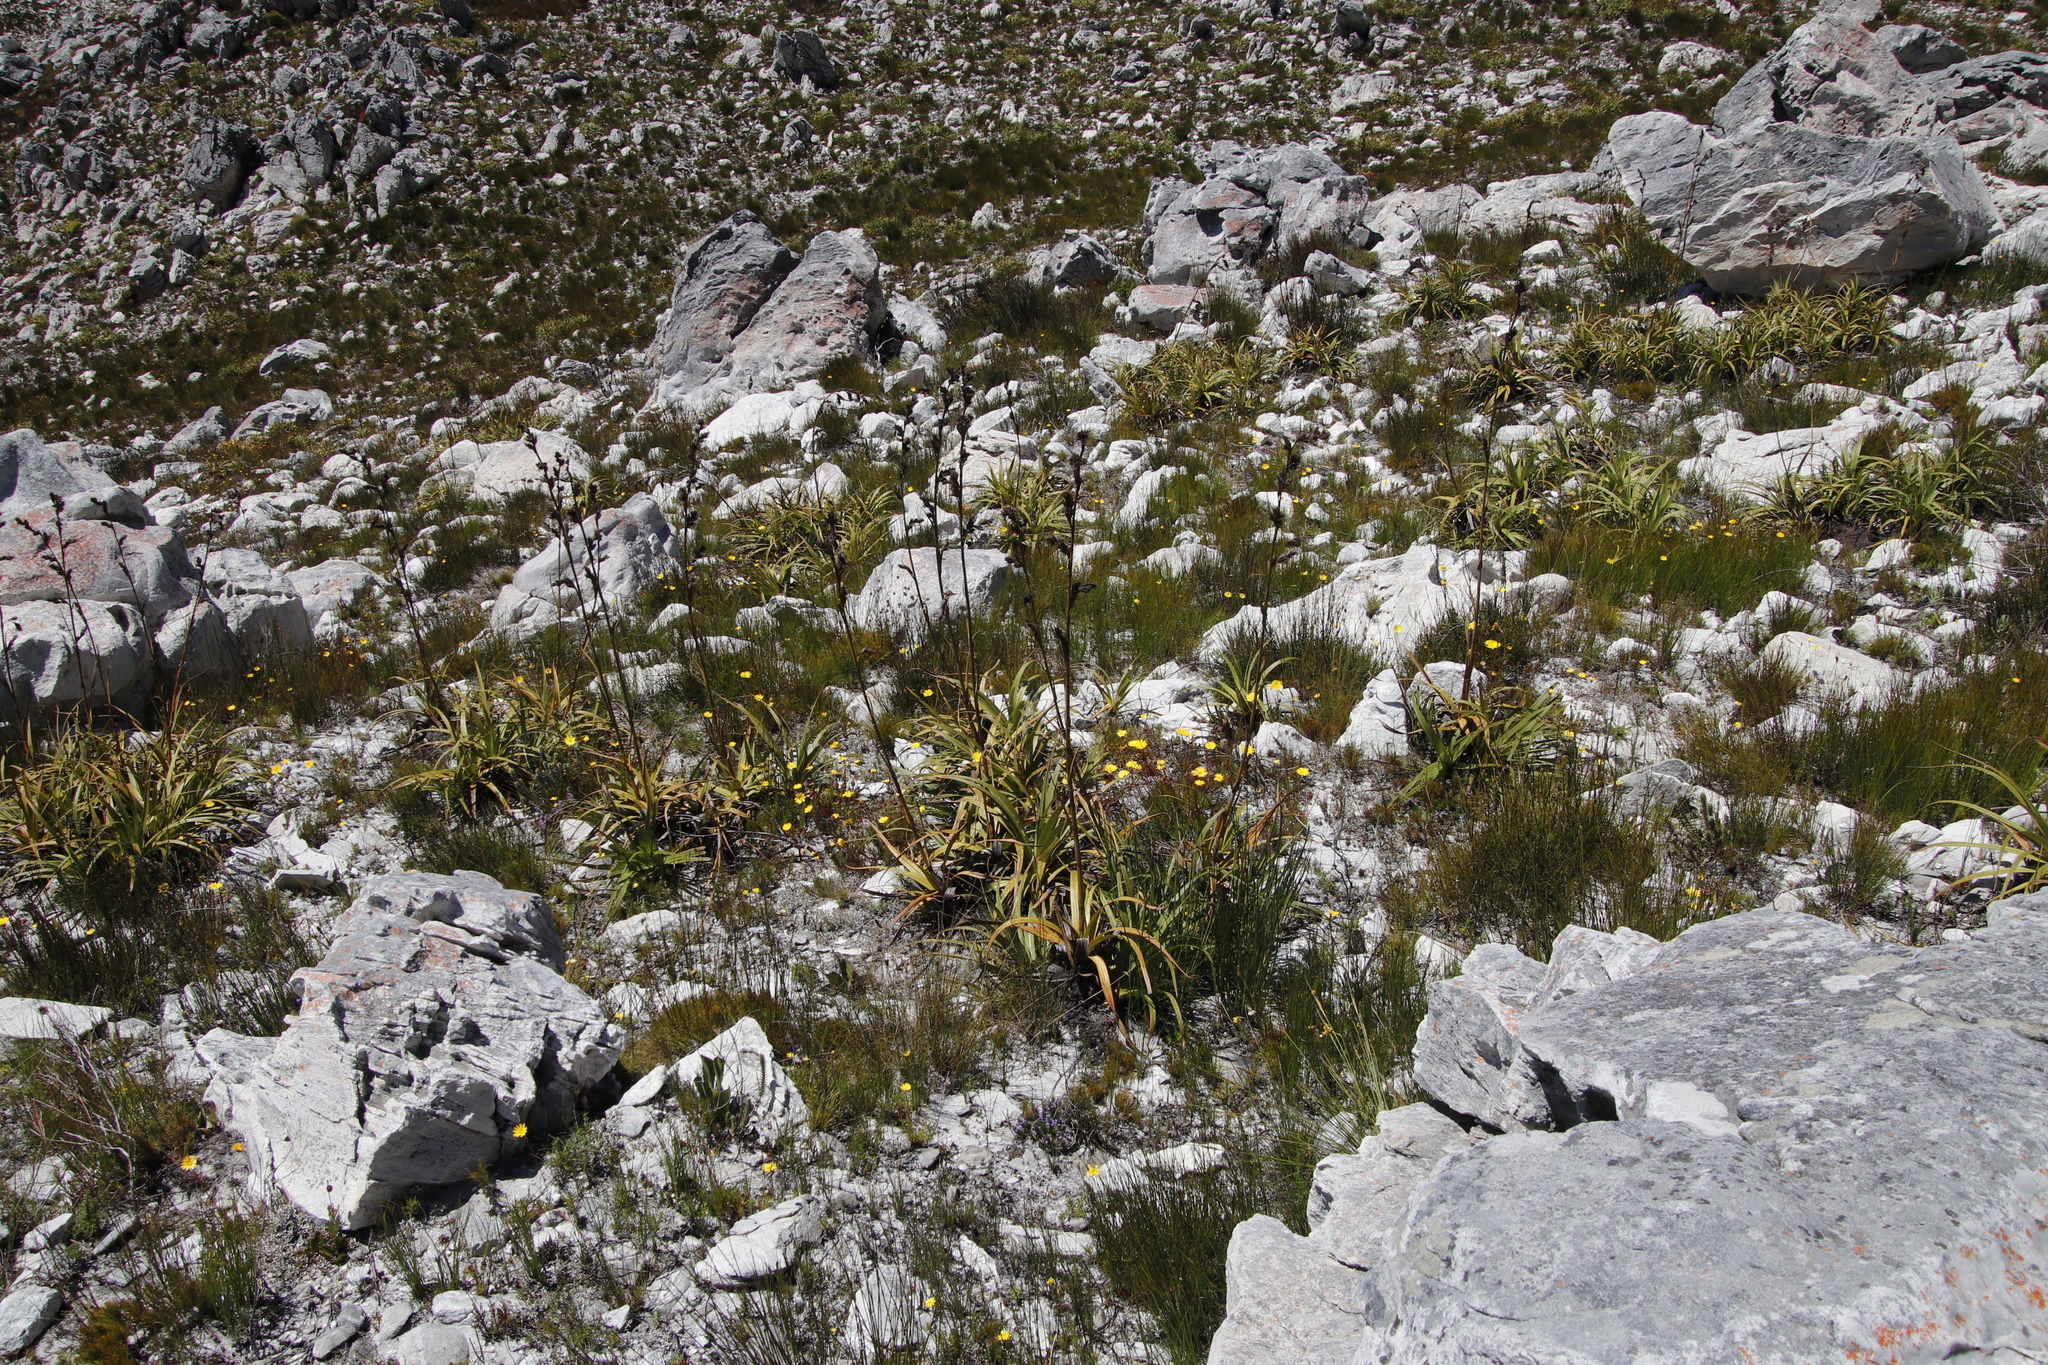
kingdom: Plantae
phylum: Tracheophyta
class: Liliopsida
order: Poales
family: Cyperaceae
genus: Tetraria
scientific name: Tetraria thermalis
